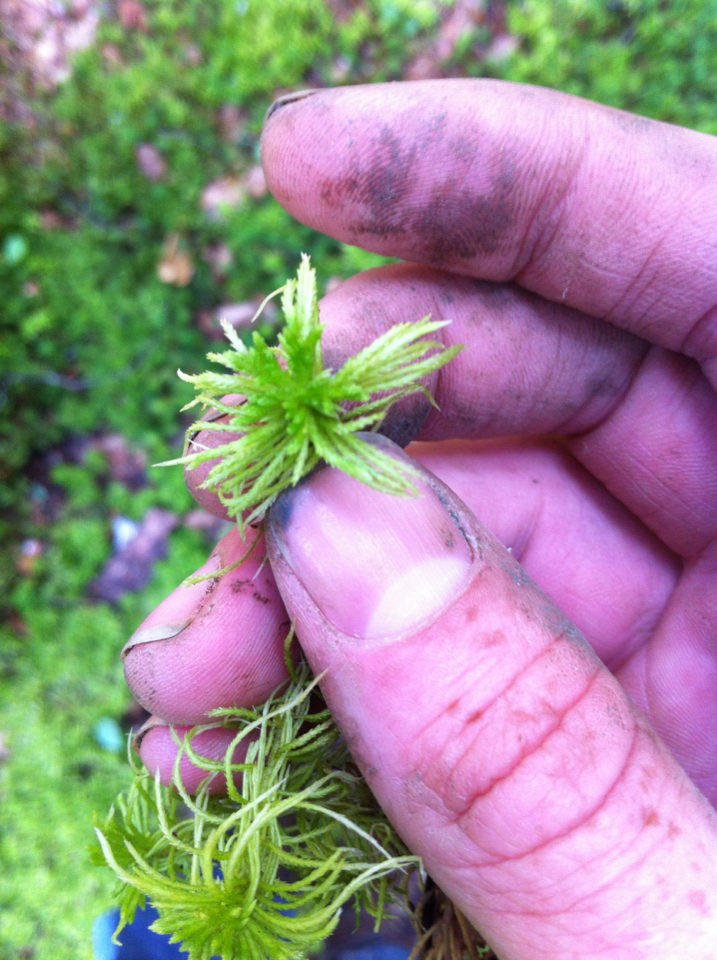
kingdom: Plantae
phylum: Bryophyta
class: Sphagnopsida
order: Sphagnales
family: Sphagnaceae
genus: Sphagnum
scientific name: Sphagnum girgensohnii
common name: Girgensohn's peat moss
